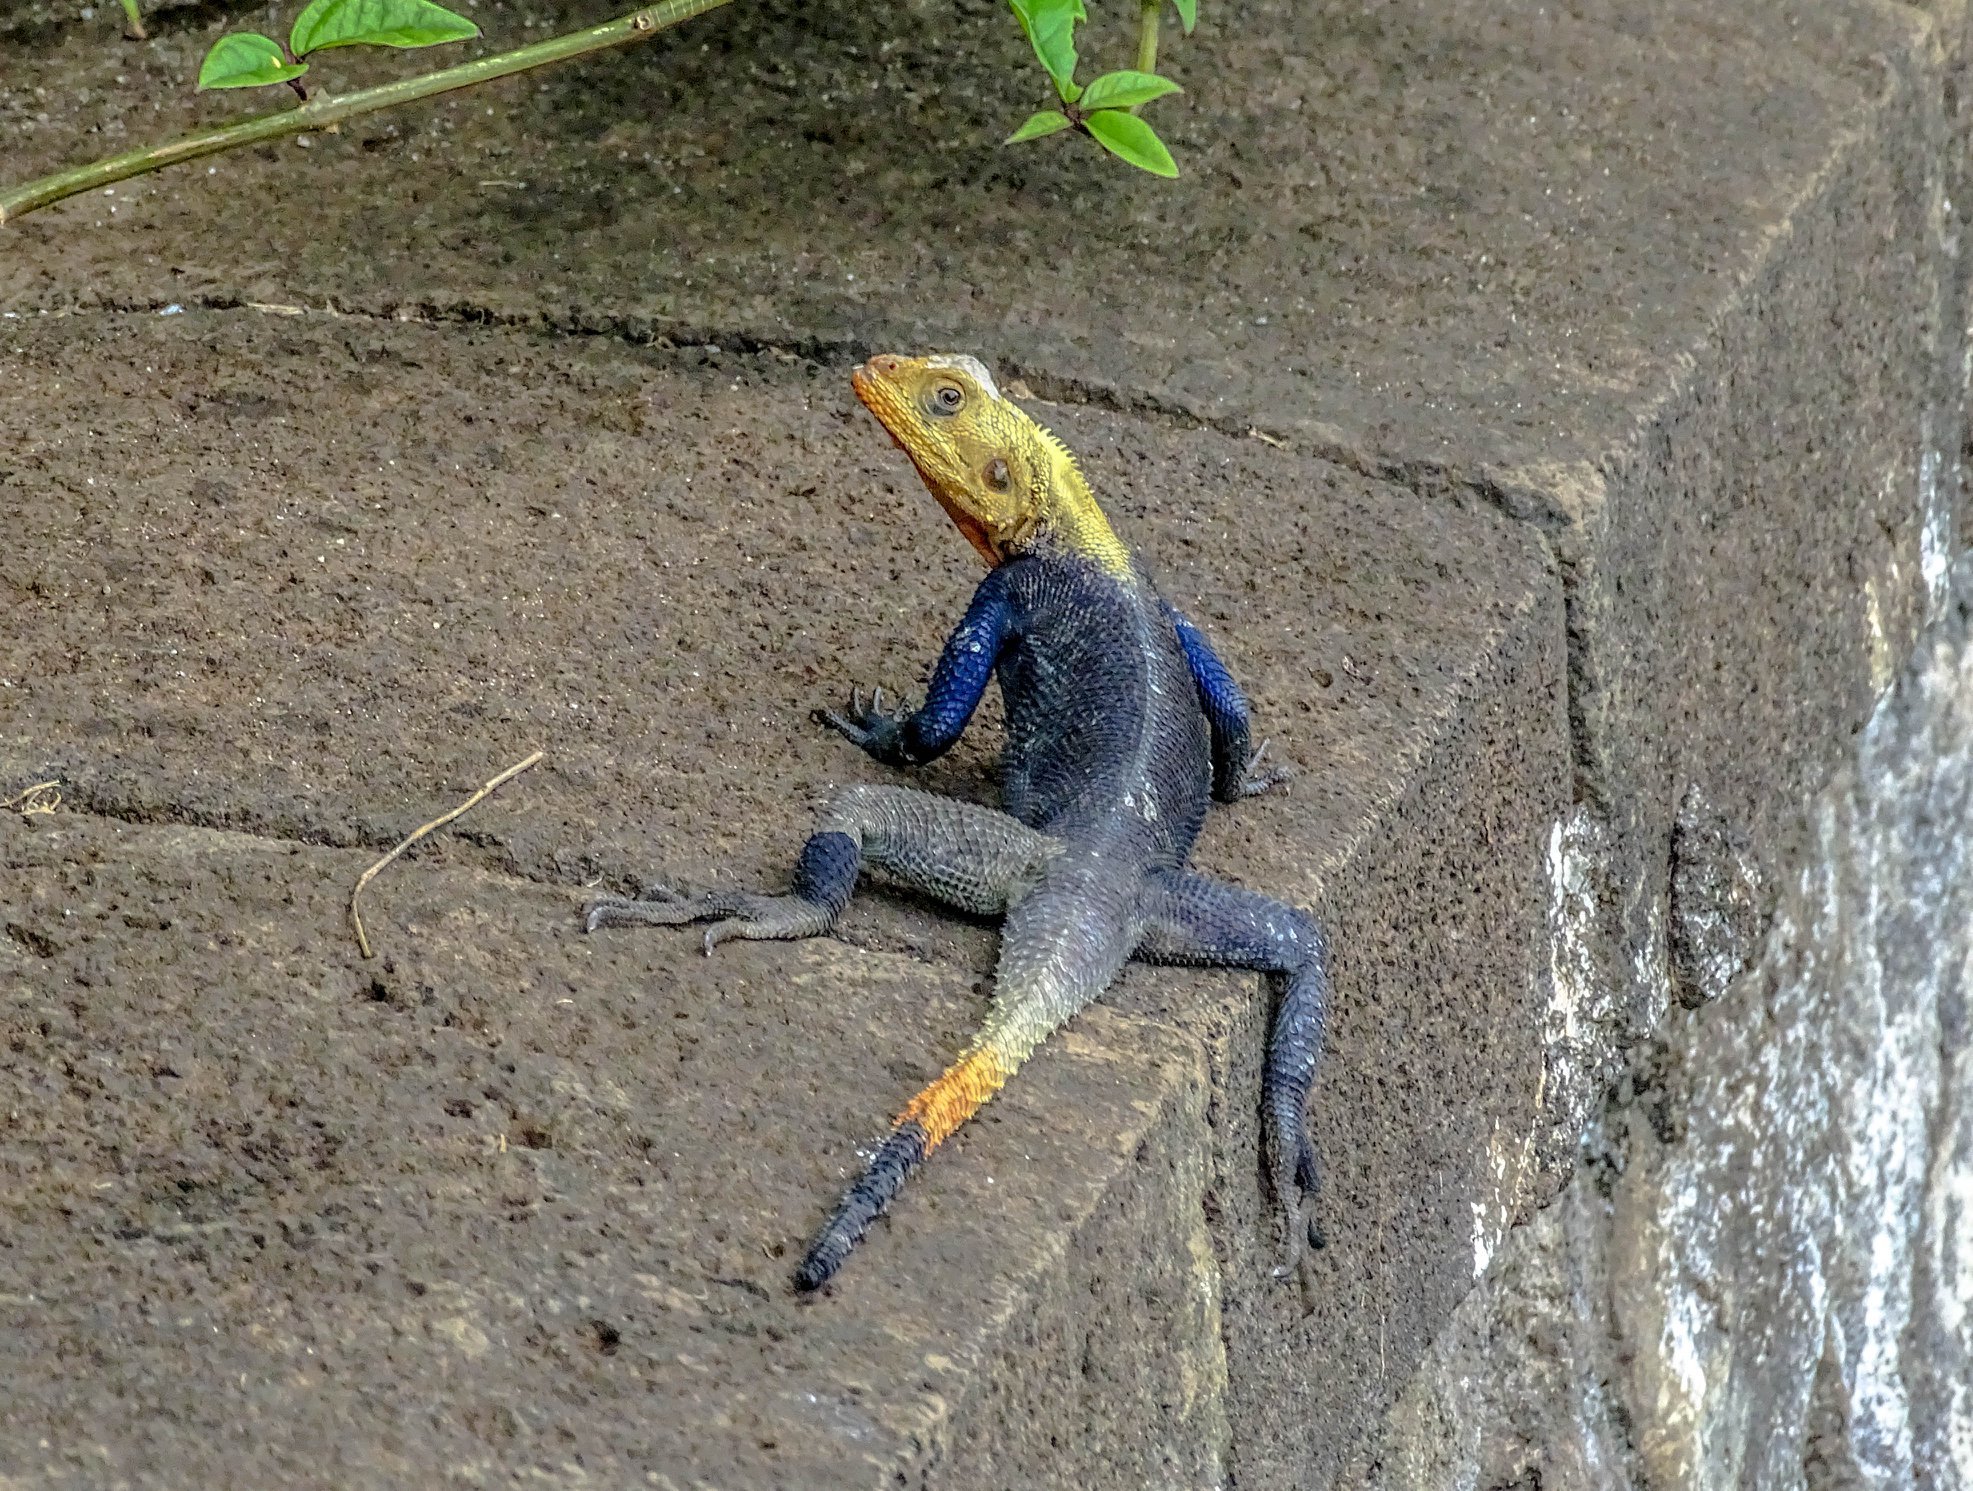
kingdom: Animalia
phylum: Chordata
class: Squamata
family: Agamidae
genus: Agama
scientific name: Agama agama
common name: Common agama
